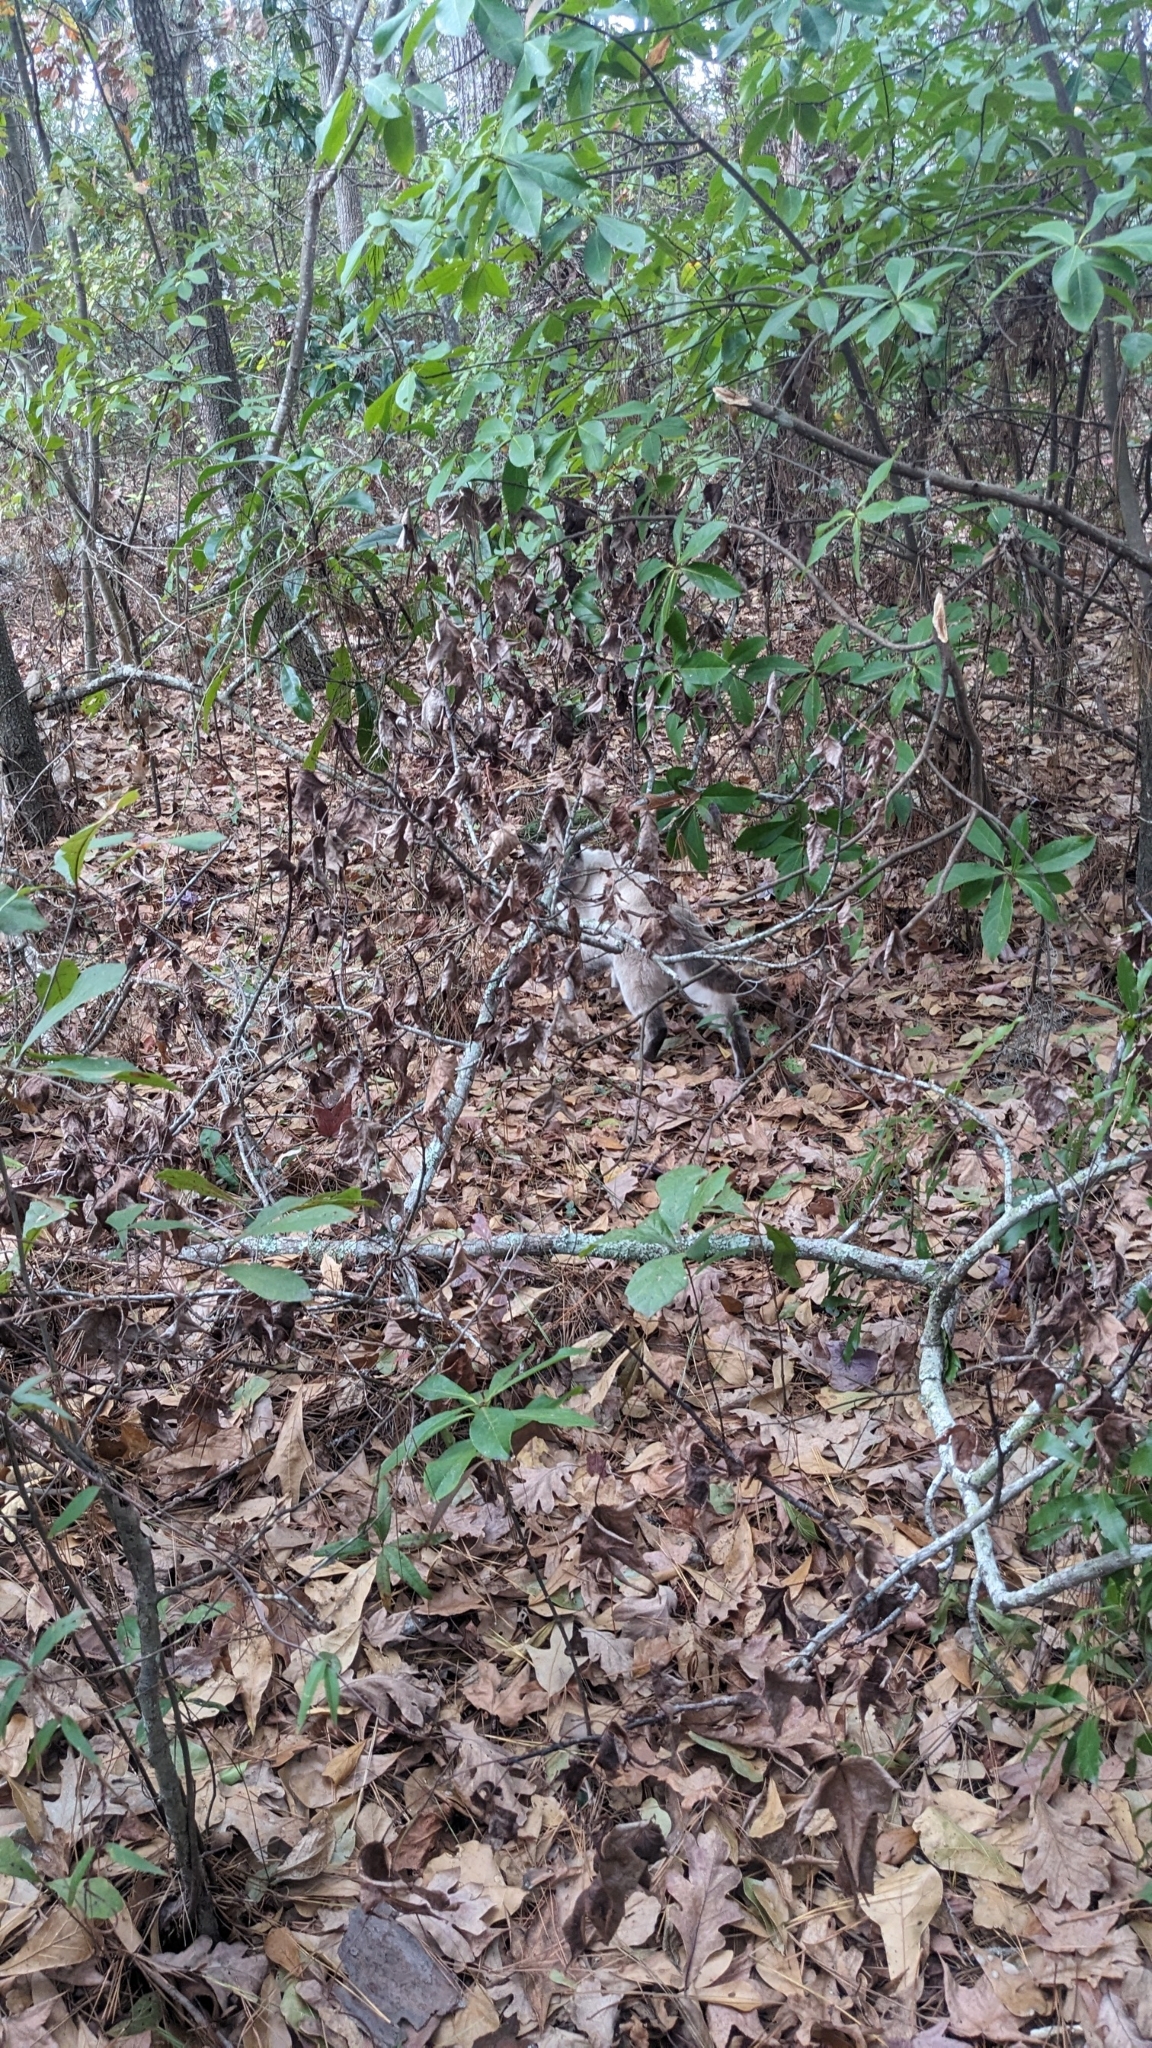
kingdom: Animalia
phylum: Chordata
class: Mammalia
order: Carnivora
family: Felidae
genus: Felis
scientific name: Felis catus
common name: Domestic cat
